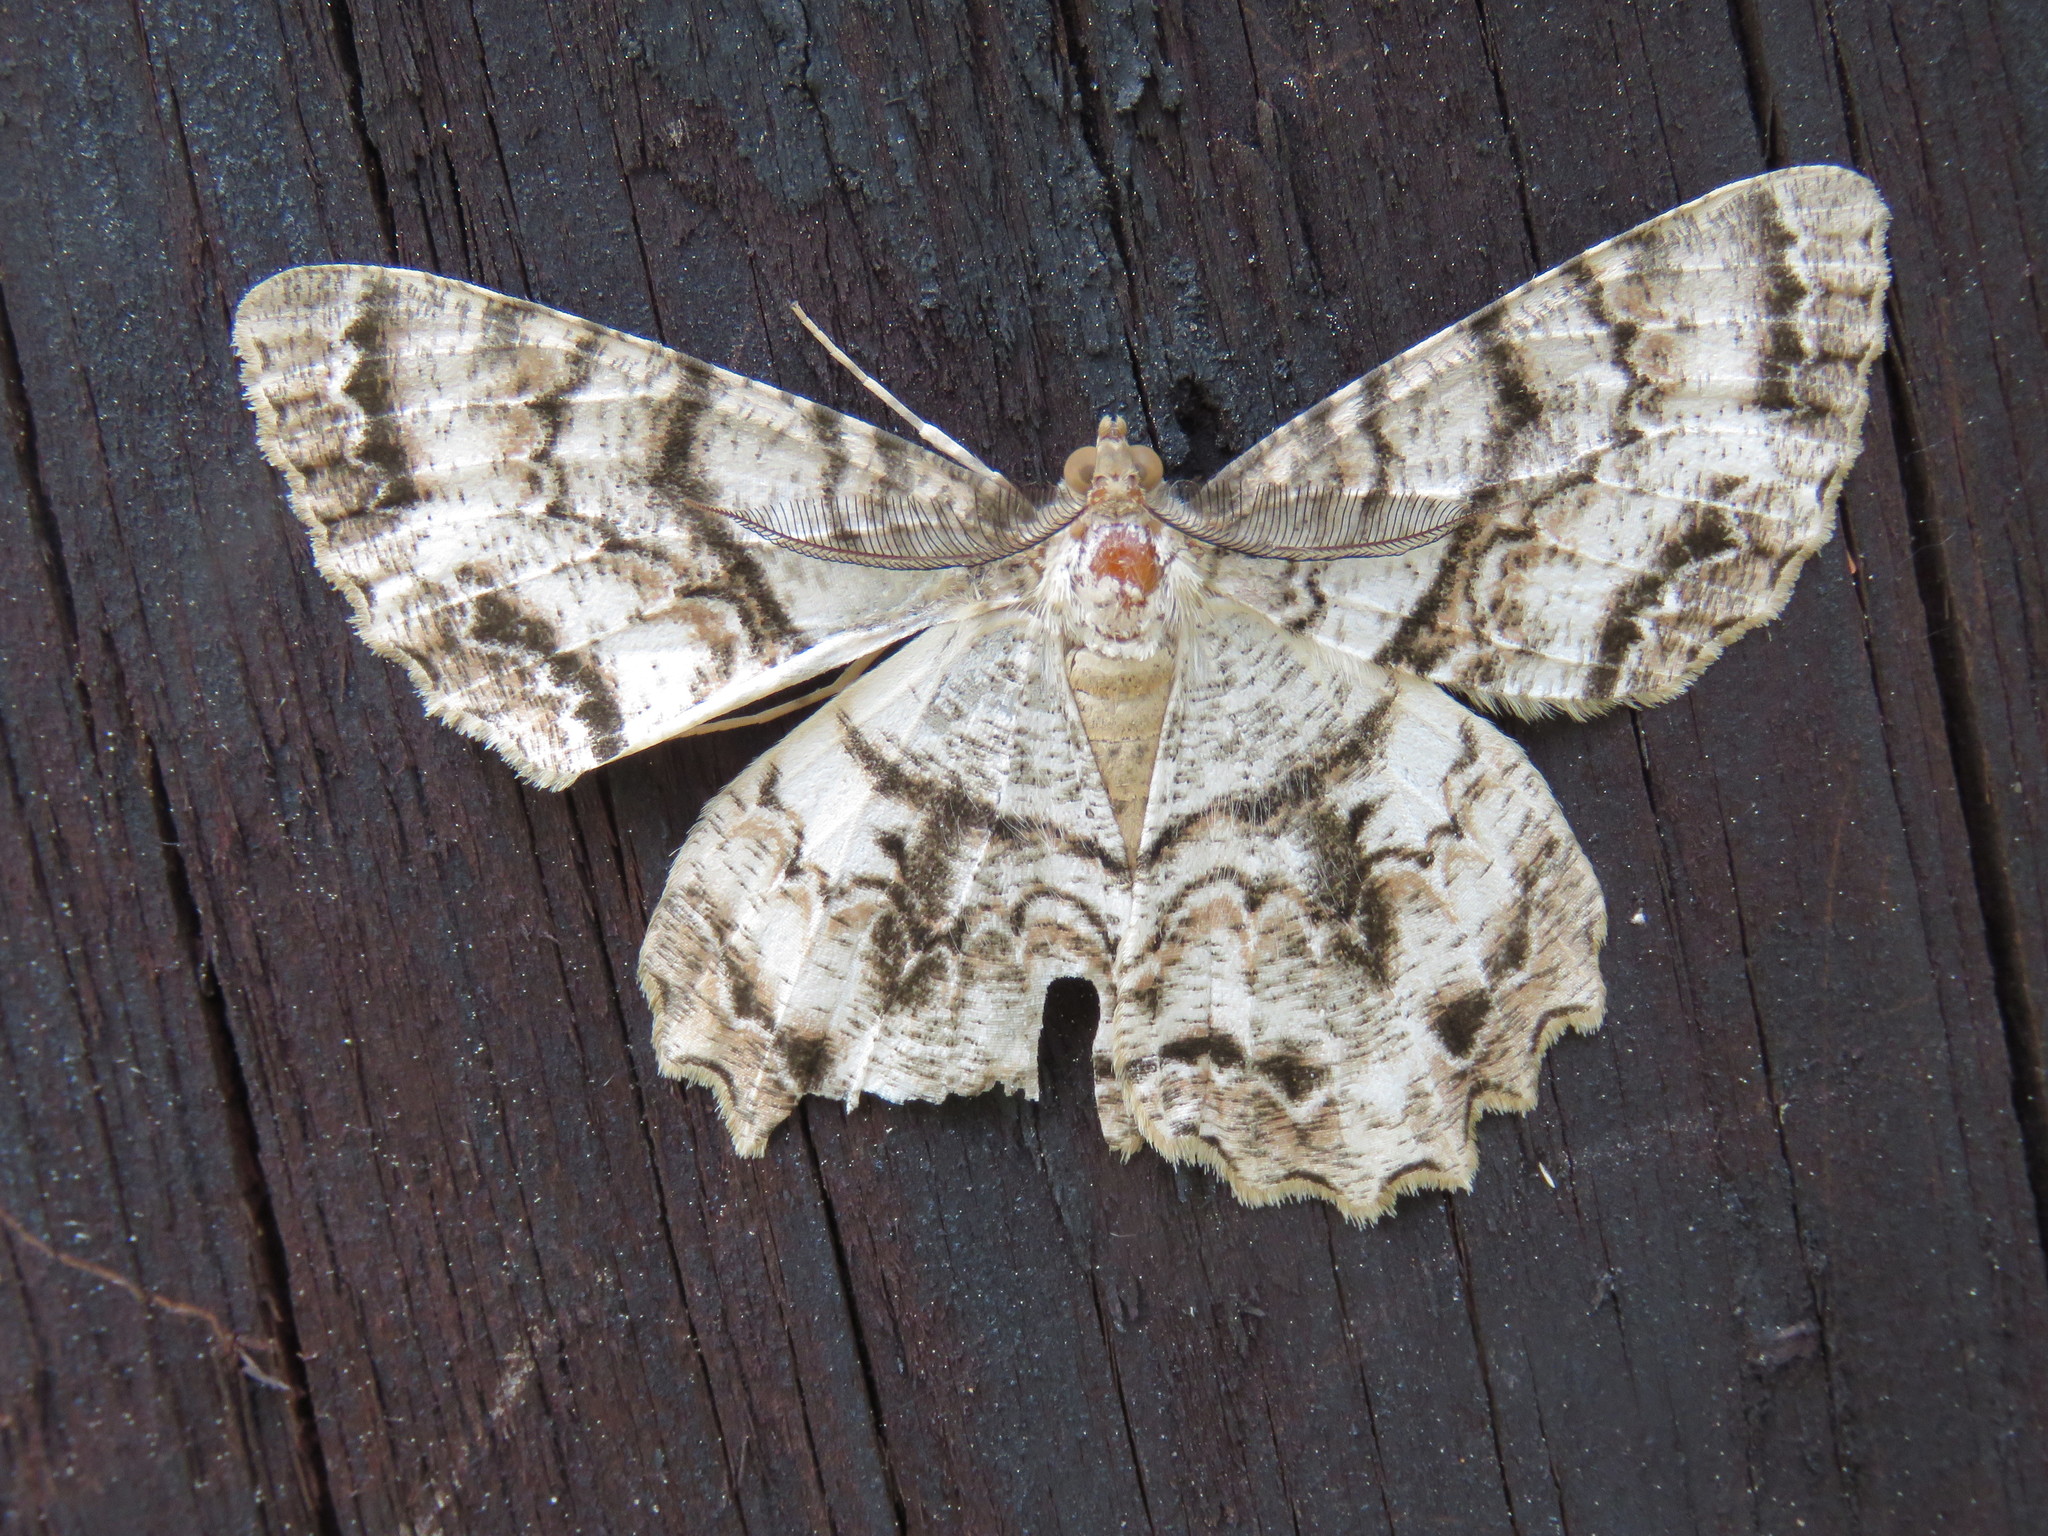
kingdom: Animalia
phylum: Arthropoda
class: Insecta
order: Lepidoptera
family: Geometridae
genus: Epimecis
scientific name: Epimecis hortaria
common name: Tulip-tree beauty
